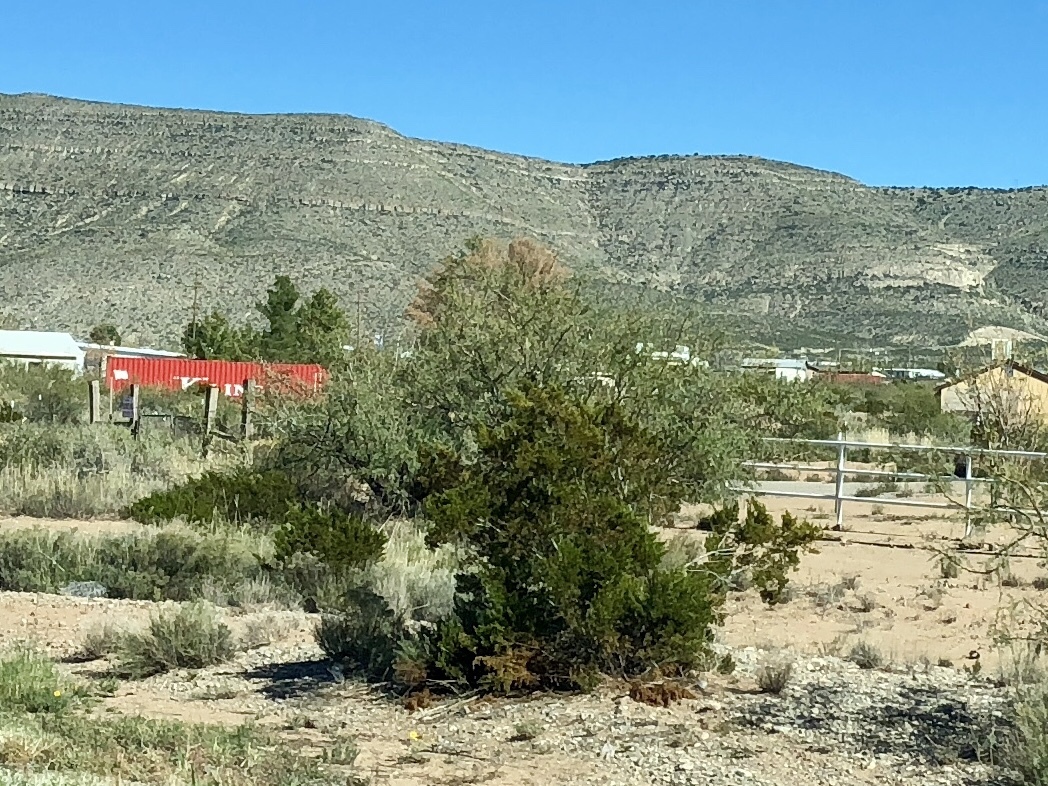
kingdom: Plantae
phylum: Tracheophyta
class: Magnoliopsida
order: Zygophyllales
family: Zygophyllaceae
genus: Larrea
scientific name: Larrea tridentata
